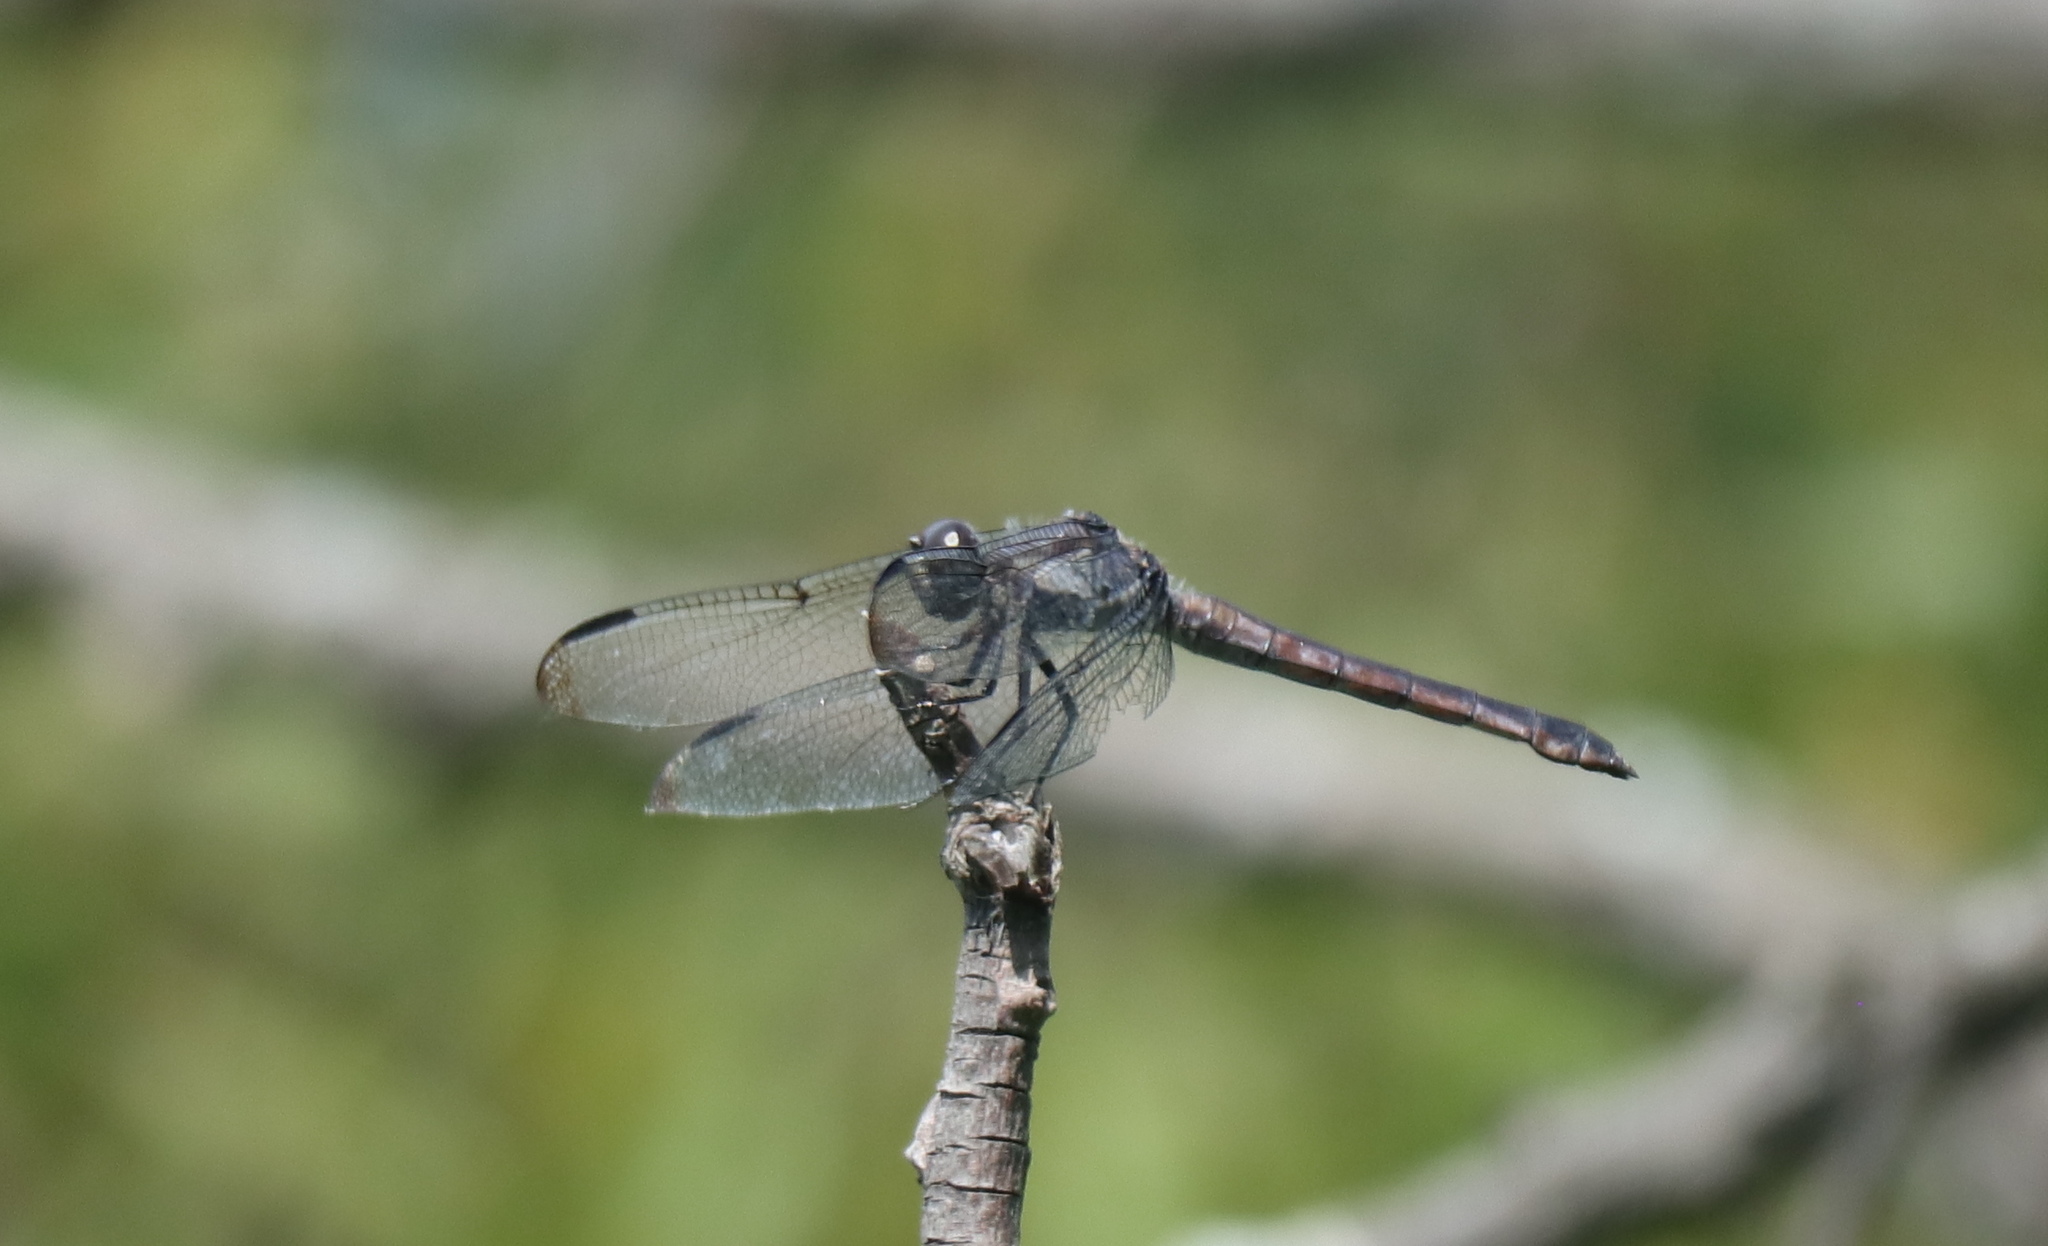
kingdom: Animalia
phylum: Arthropoda
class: Insecta
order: Odonata
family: Libellulidae
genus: Libellula
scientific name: Libellula incesta
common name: Slaty skimmer
